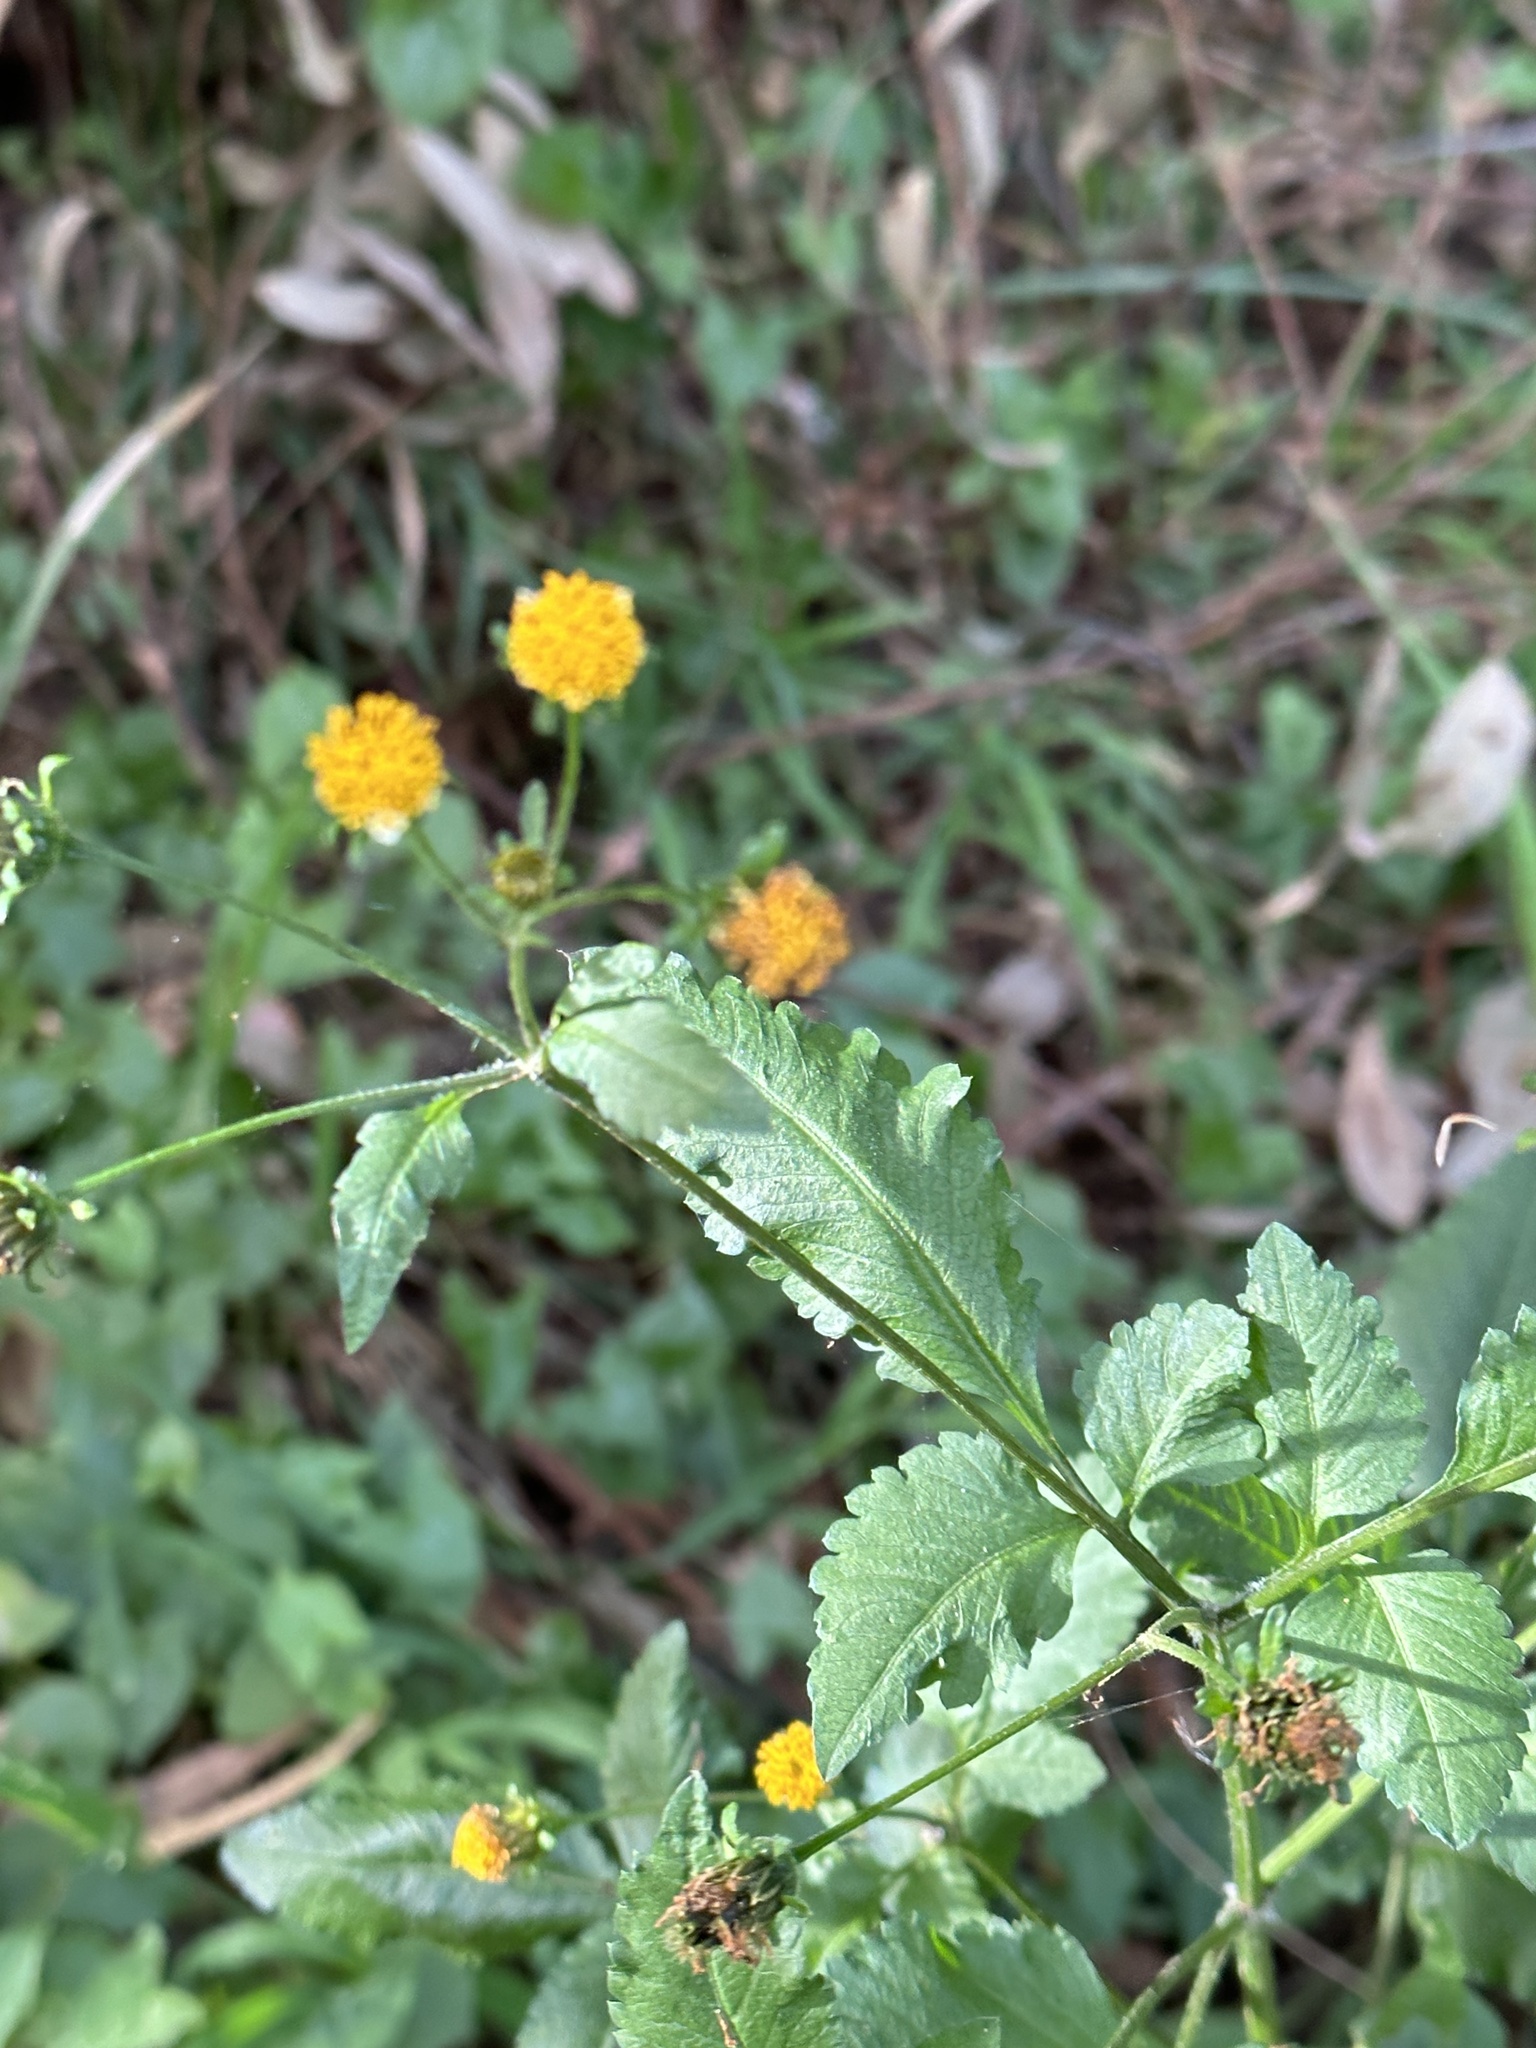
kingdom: Plantae
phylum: Tracheophyta
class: Magnoliopsida
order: Asterales
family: Asteraceae
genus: Bidens
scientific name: Bidens pilosa
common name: Black-jack
